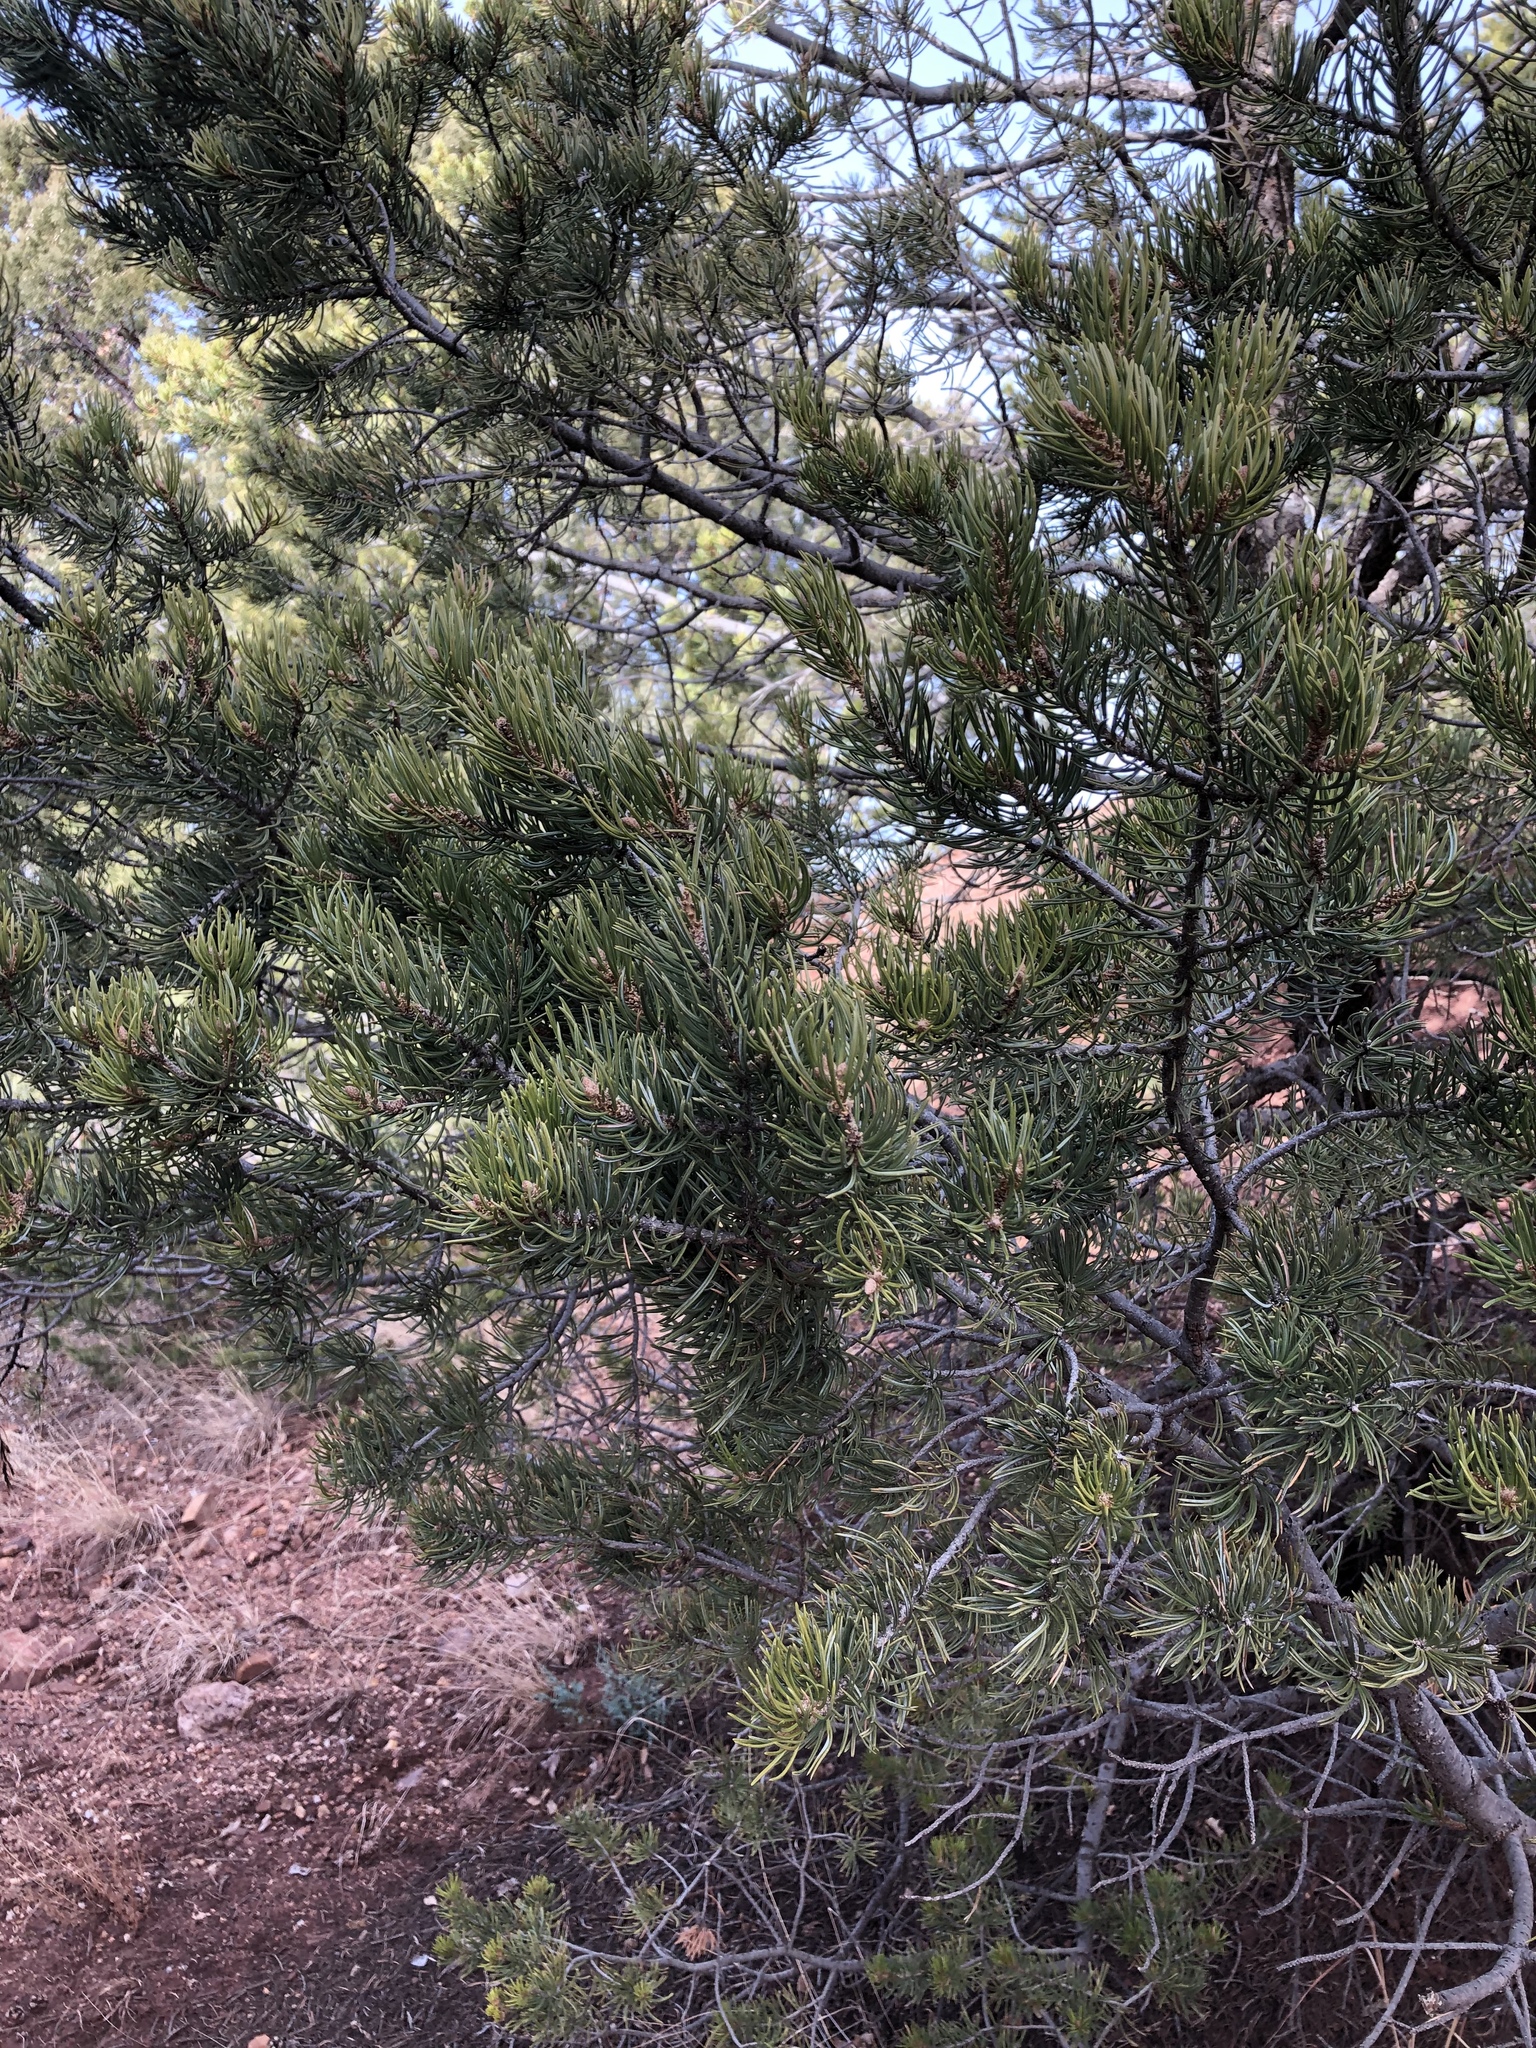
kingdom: Plantae
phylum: Tracheophyta
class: Pinopsida
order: Pinales
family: Pinaceae
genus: Pinus
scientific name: Pinus edulis
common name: Colorado pinyon
